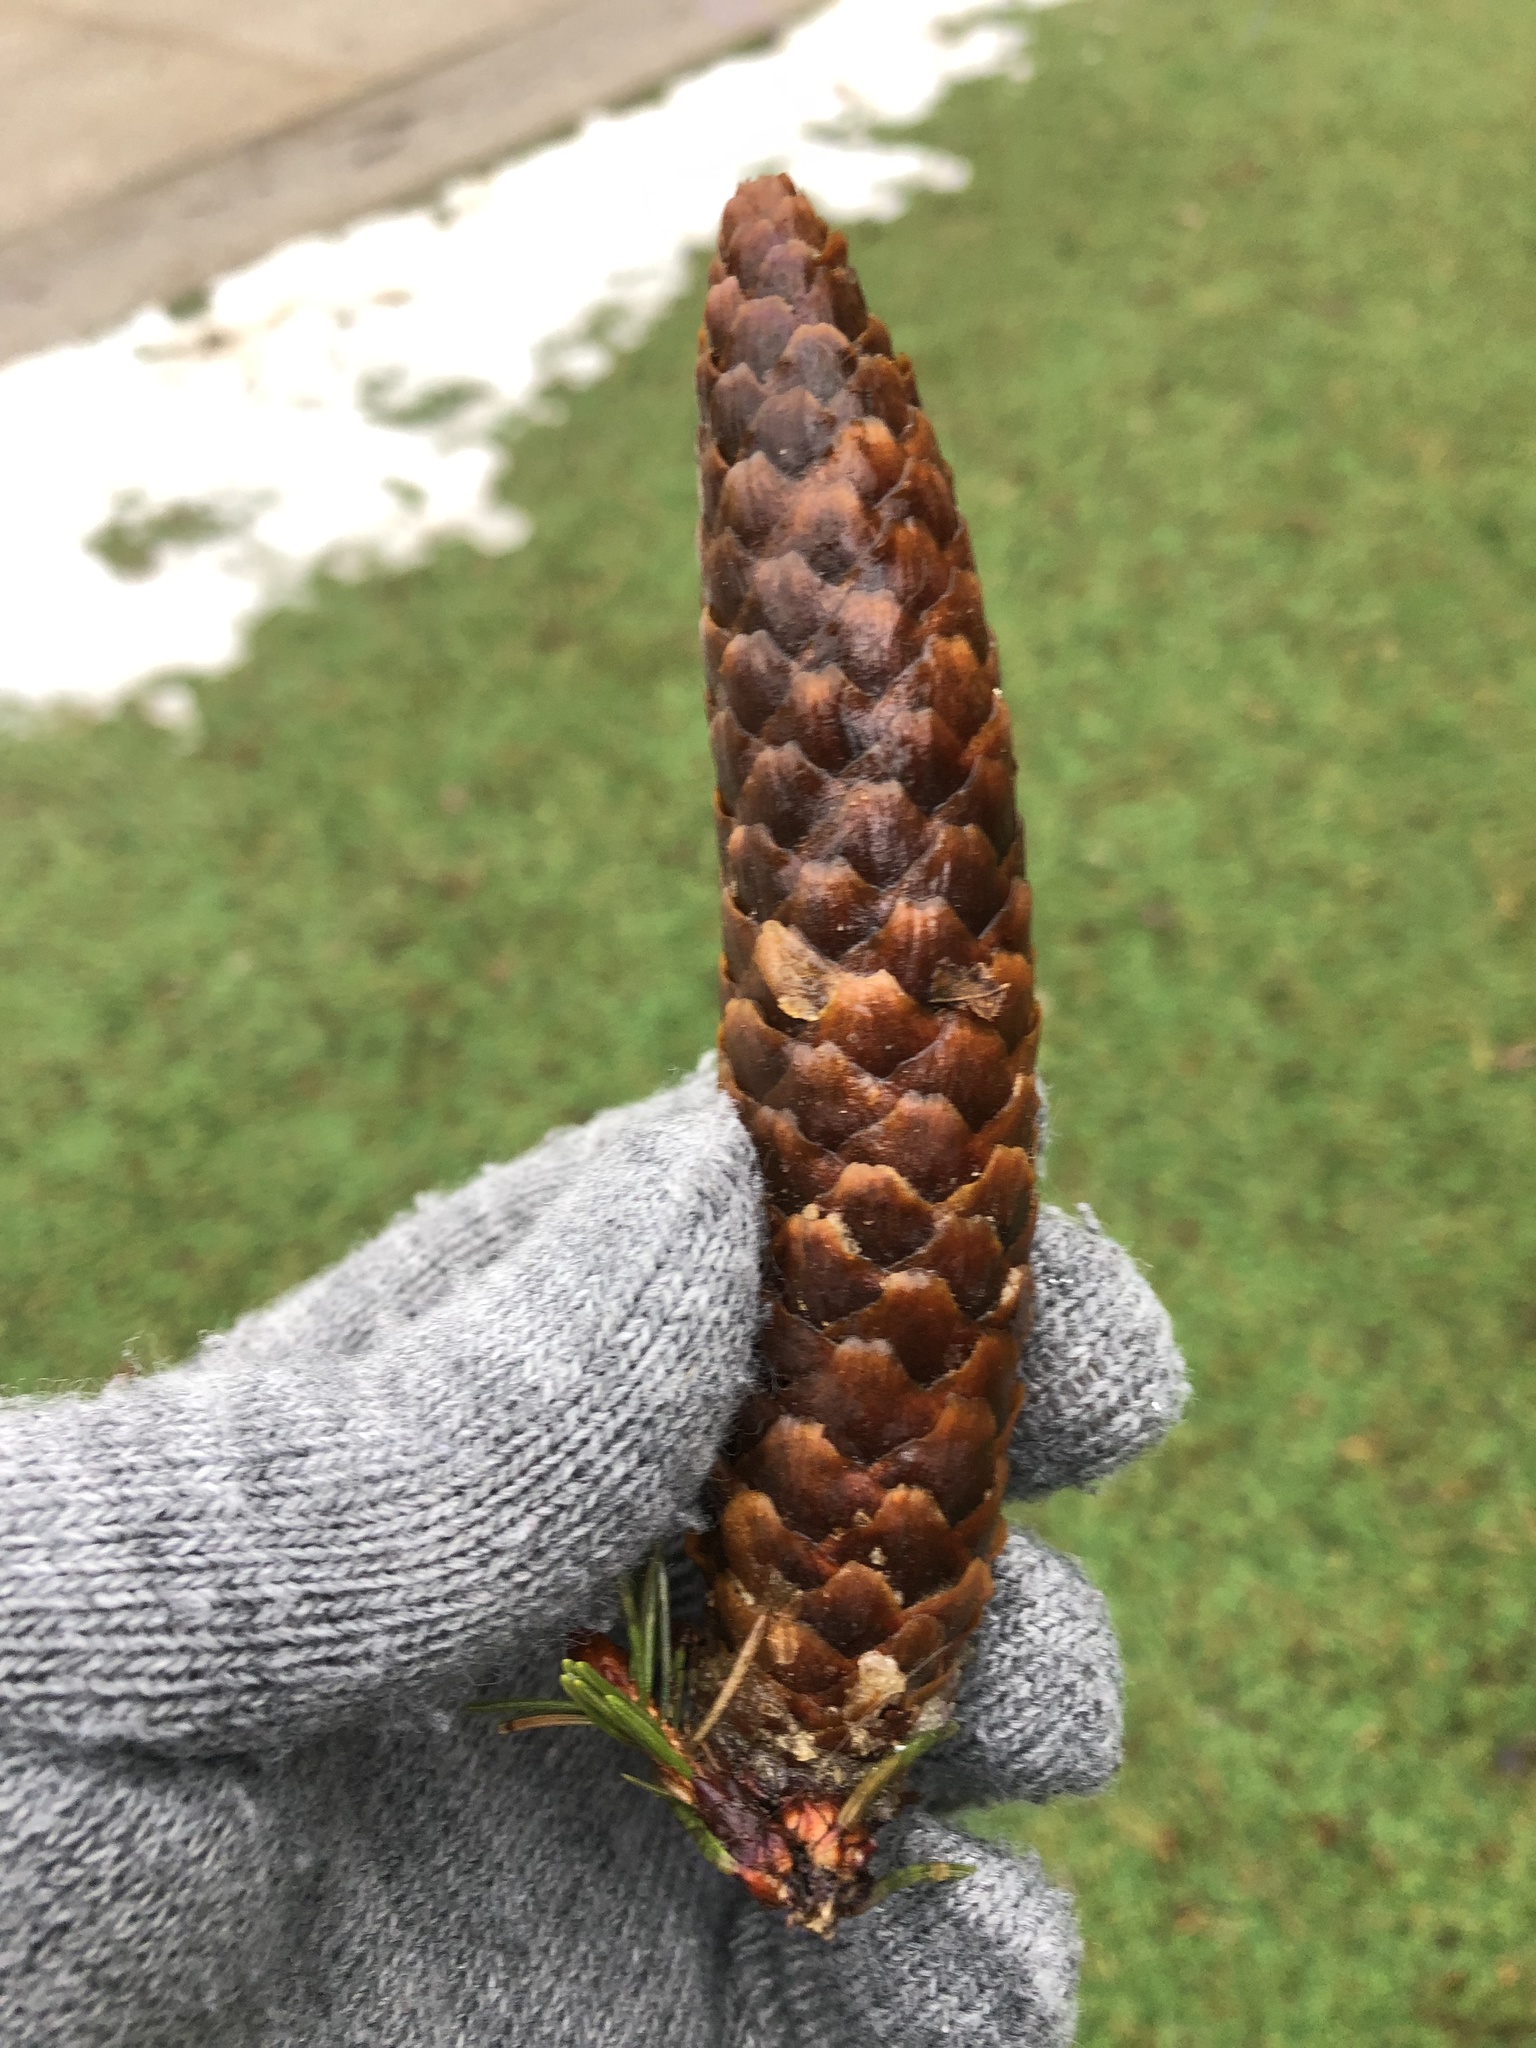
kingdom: Plantae
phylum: Tracheophyta
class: Pinopsida
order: Pinales
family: Pinaceae
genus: Picea
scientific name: Picea abies
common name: Norway spruce
